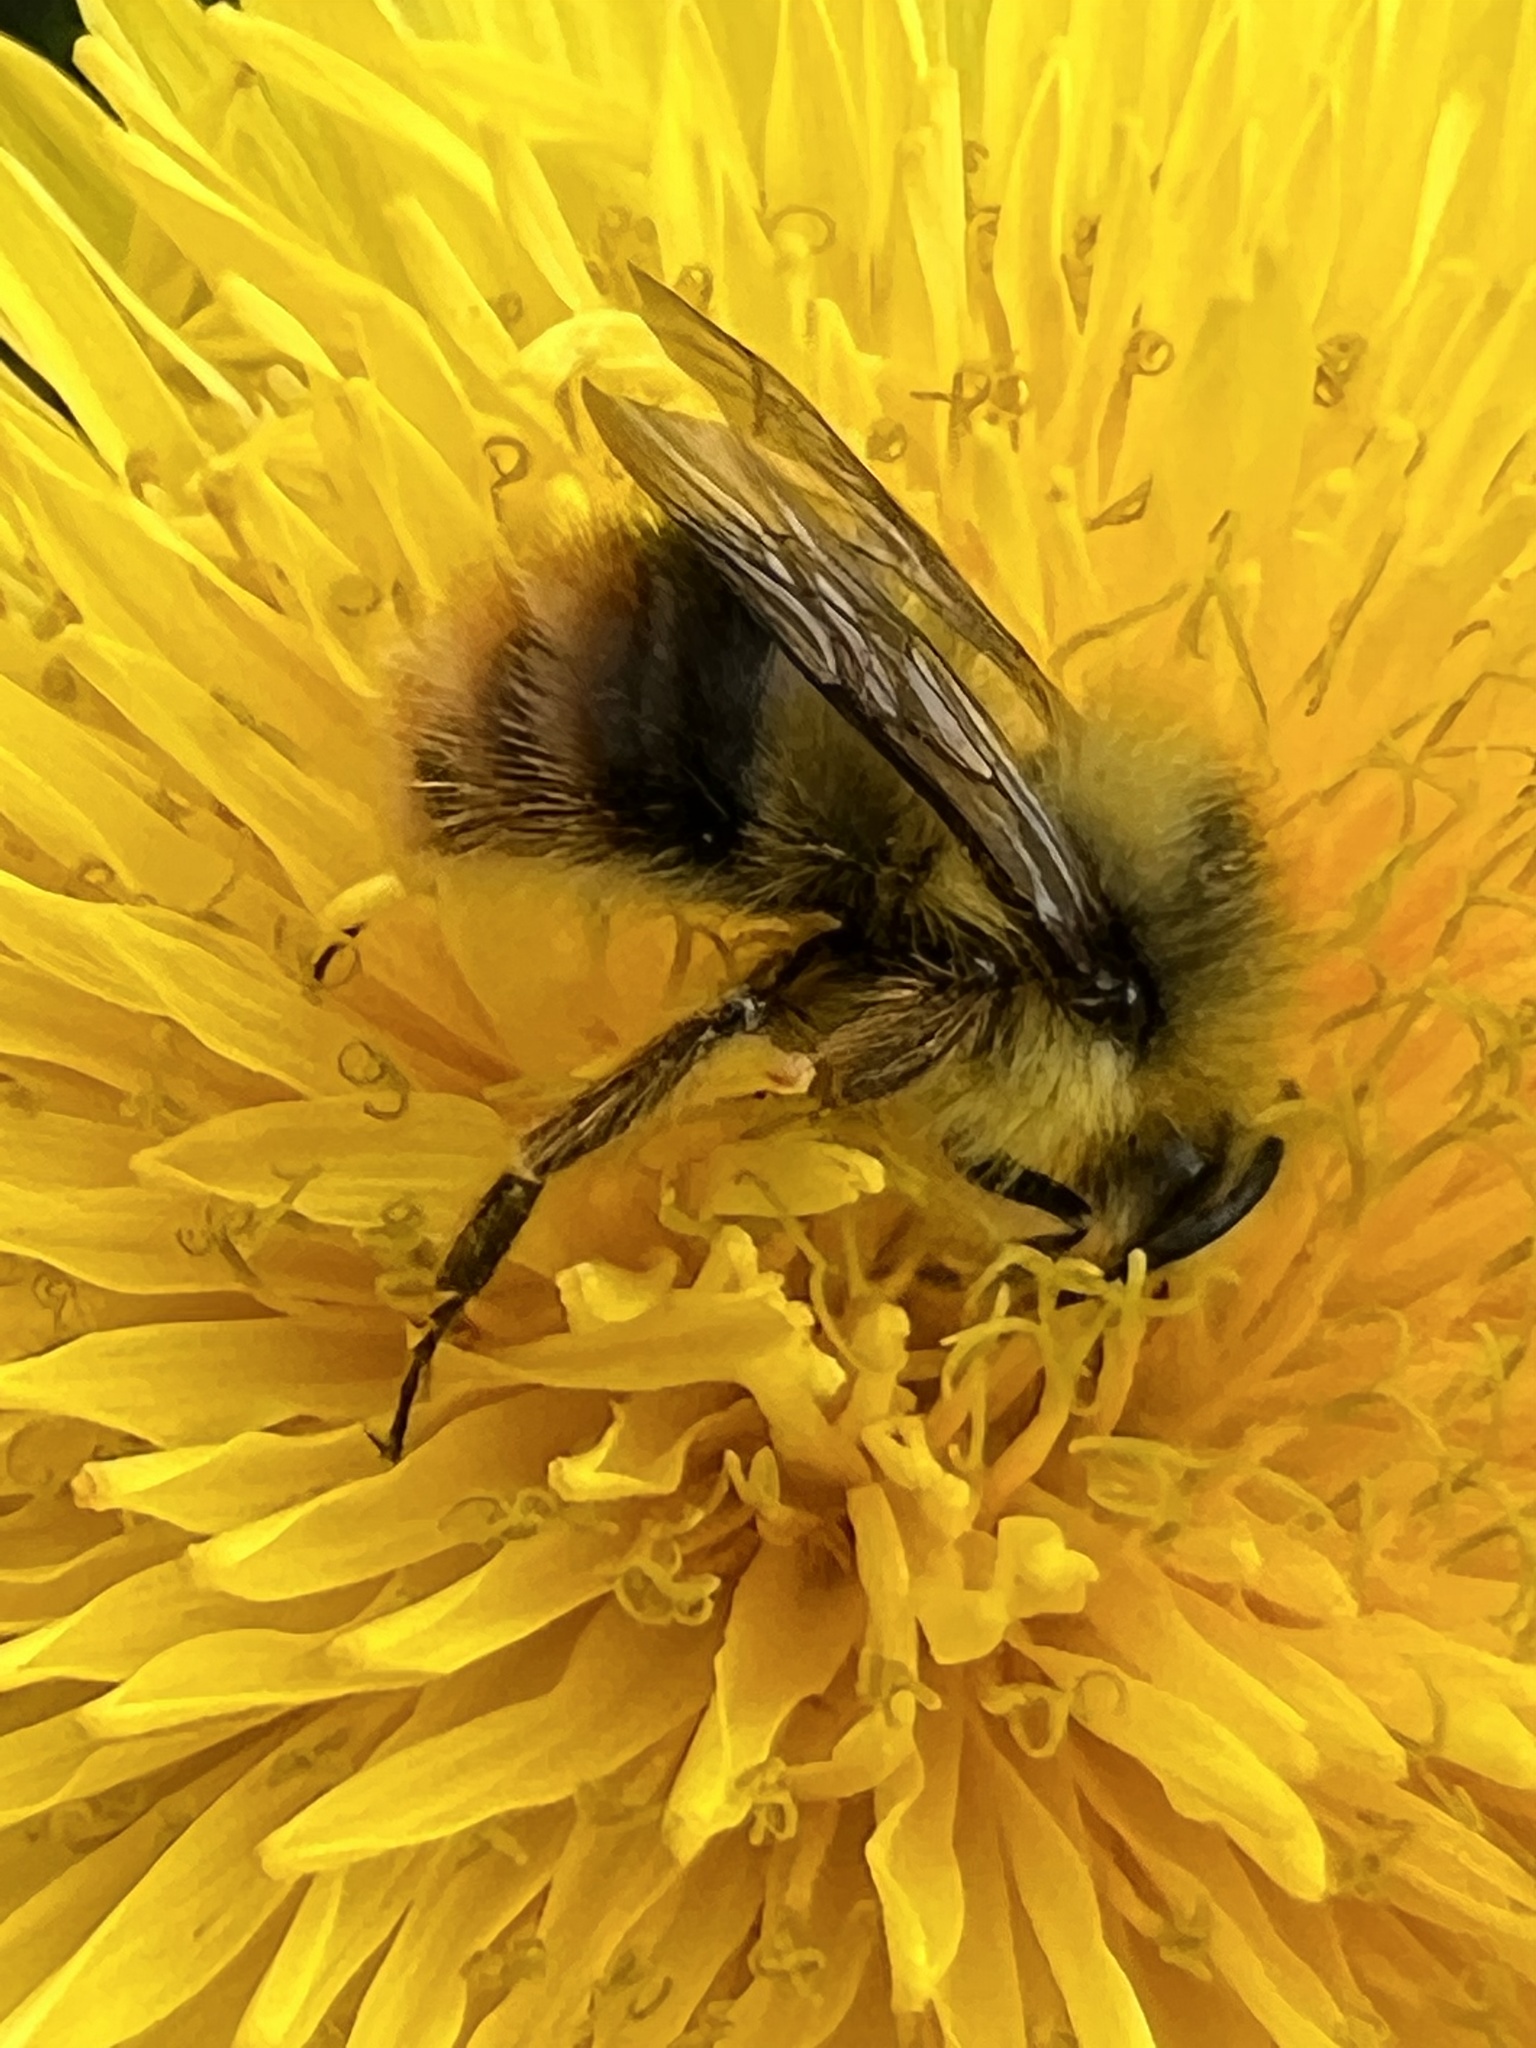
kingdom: Animalia
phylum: Arthropoda
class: Insecta
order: Hymenoptera
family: Apidae
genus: Bombus
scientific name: Bombus mixtus
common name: Fuzzy-horned bumble bee
